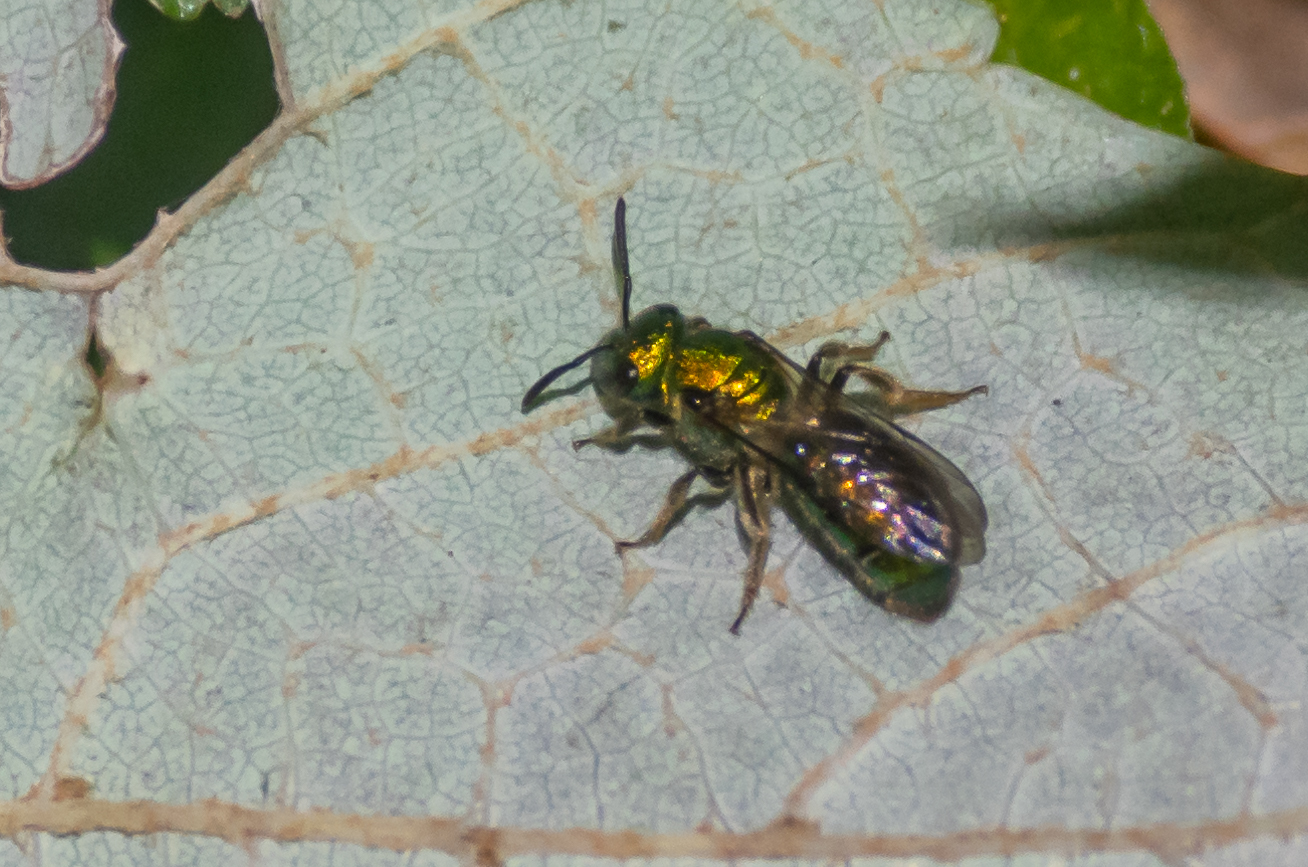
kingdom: Animalia
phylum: Arthropoda
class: Insecta
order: Hymenoptera
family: Halictidae
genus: Augochlora
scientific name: Augochlora pura
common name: Pure green sweat bee
